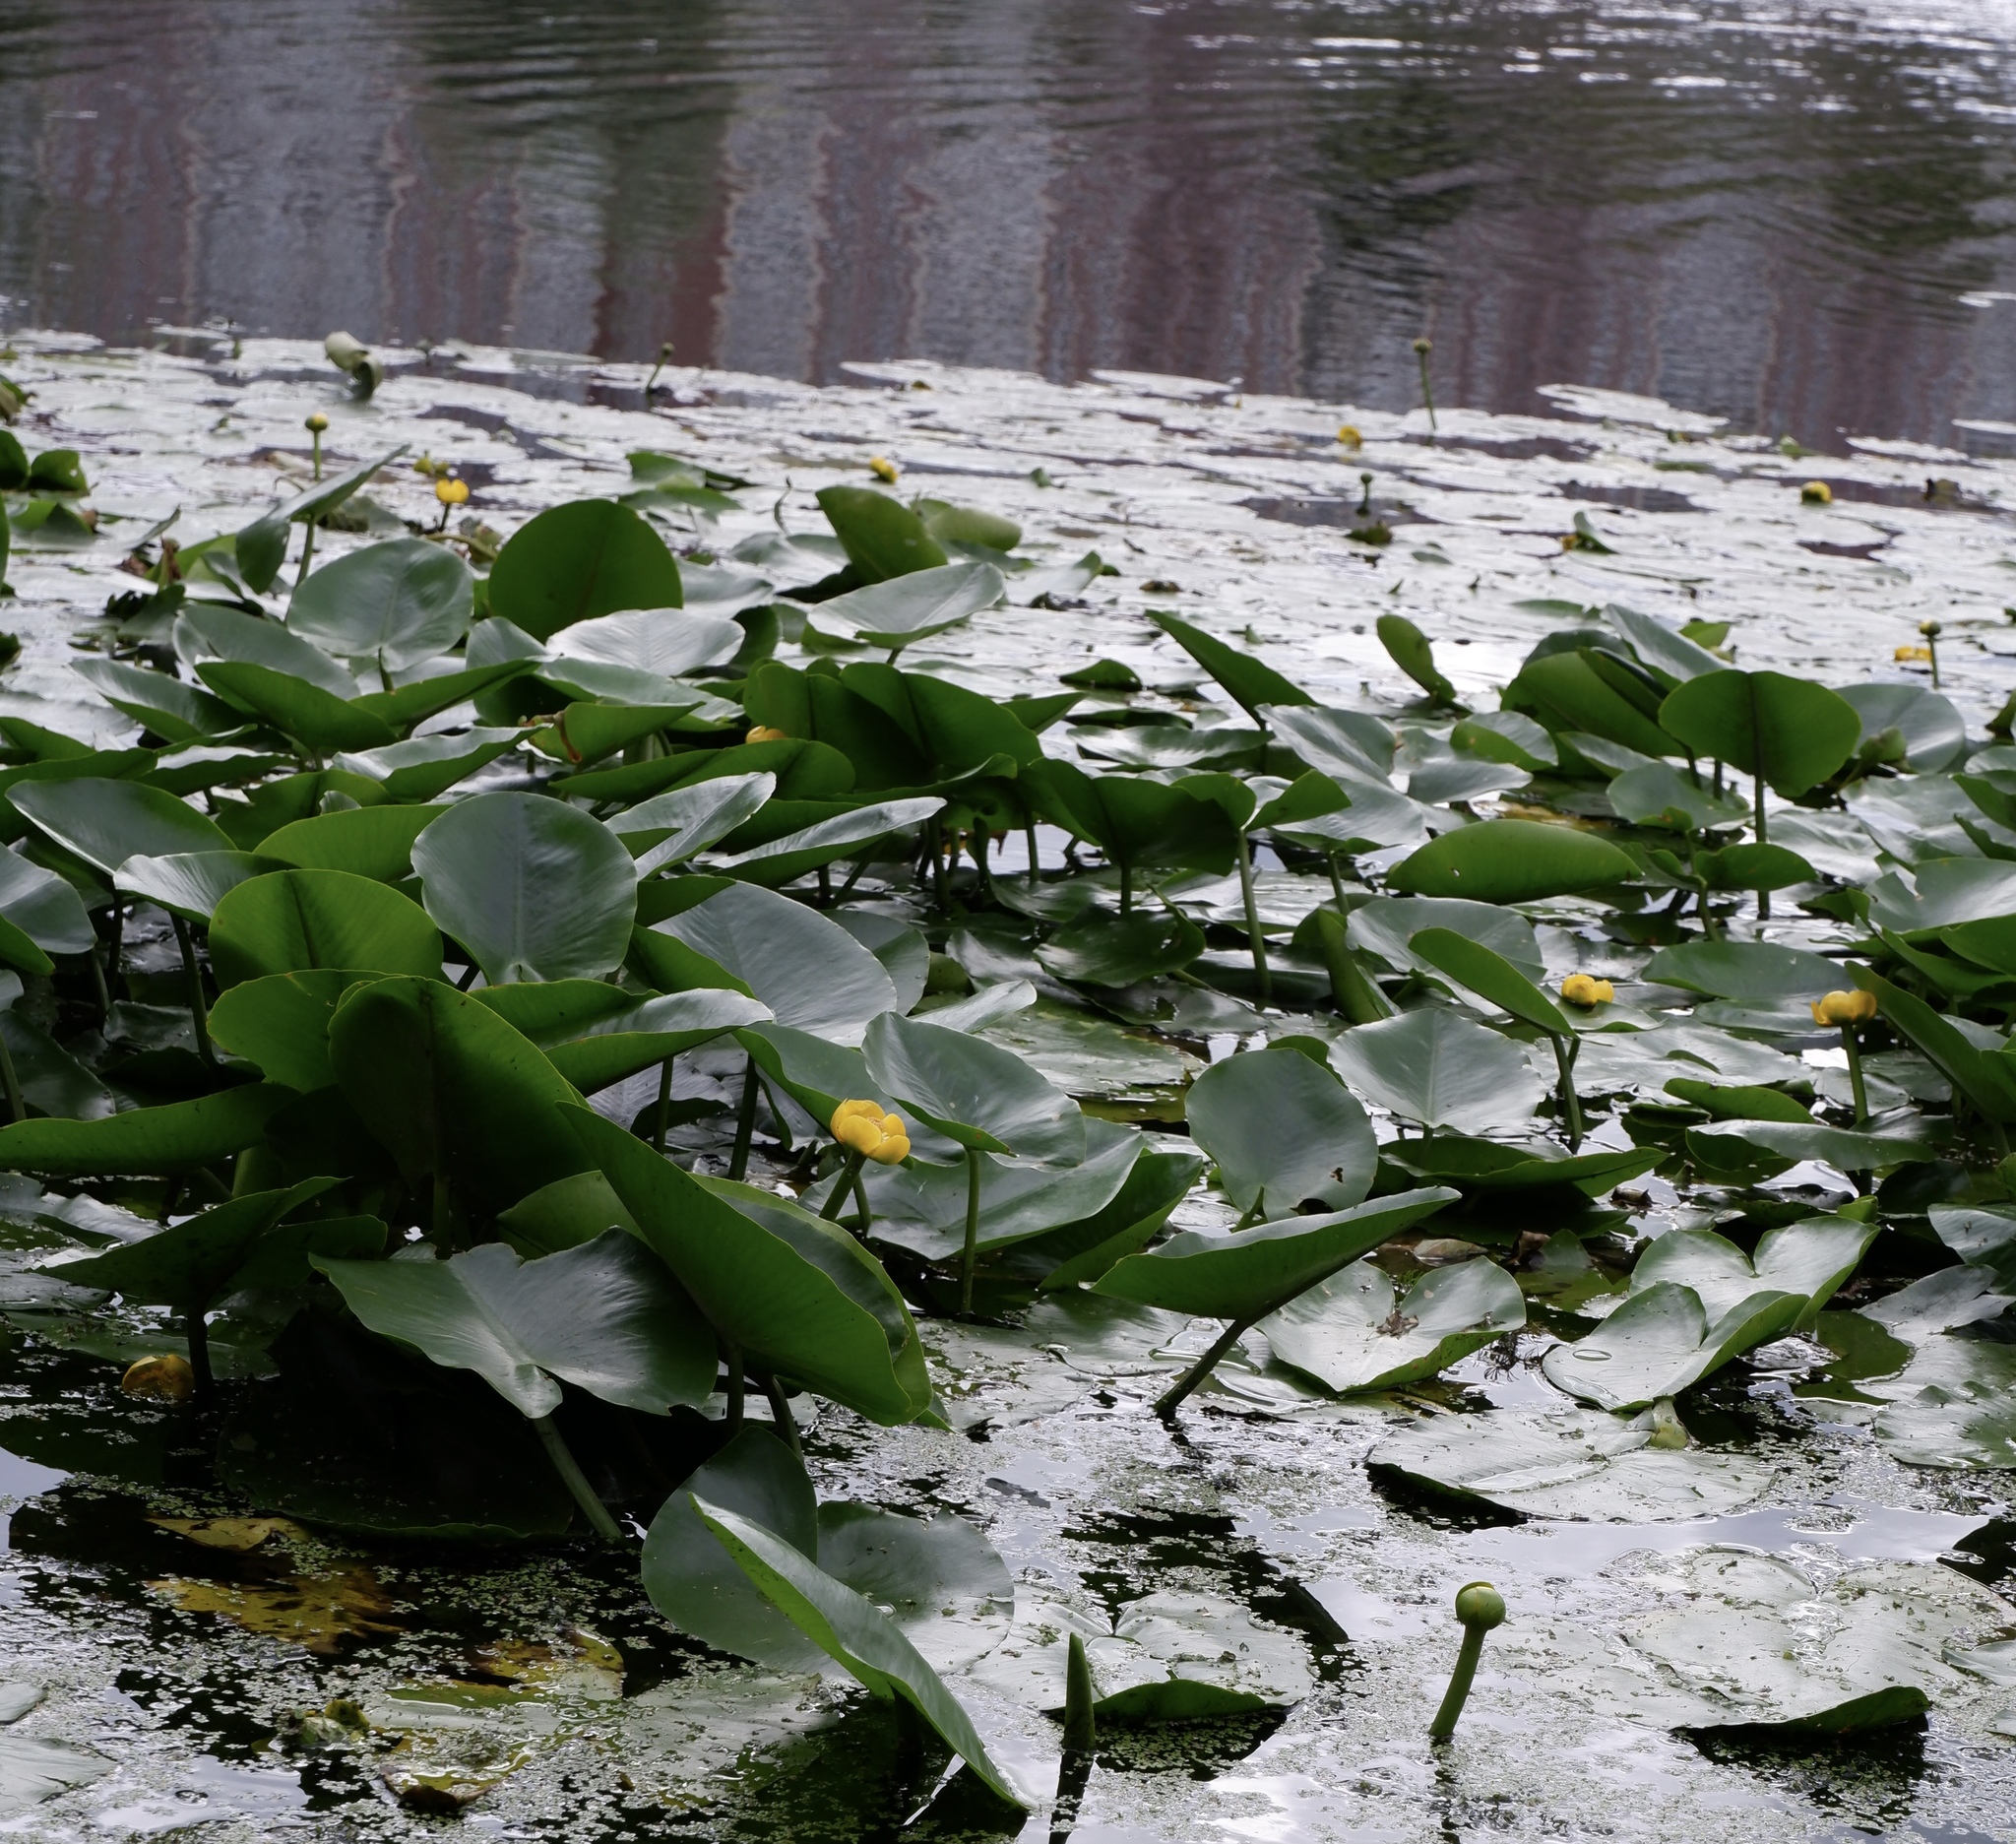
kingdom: Plantae
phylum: Tracheophyta
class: Magnoliopsida
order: Nymphaeales
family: Nymphaeaceae
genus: Nuphar
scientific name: Nuphar lutea
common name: Yellow water-lily
